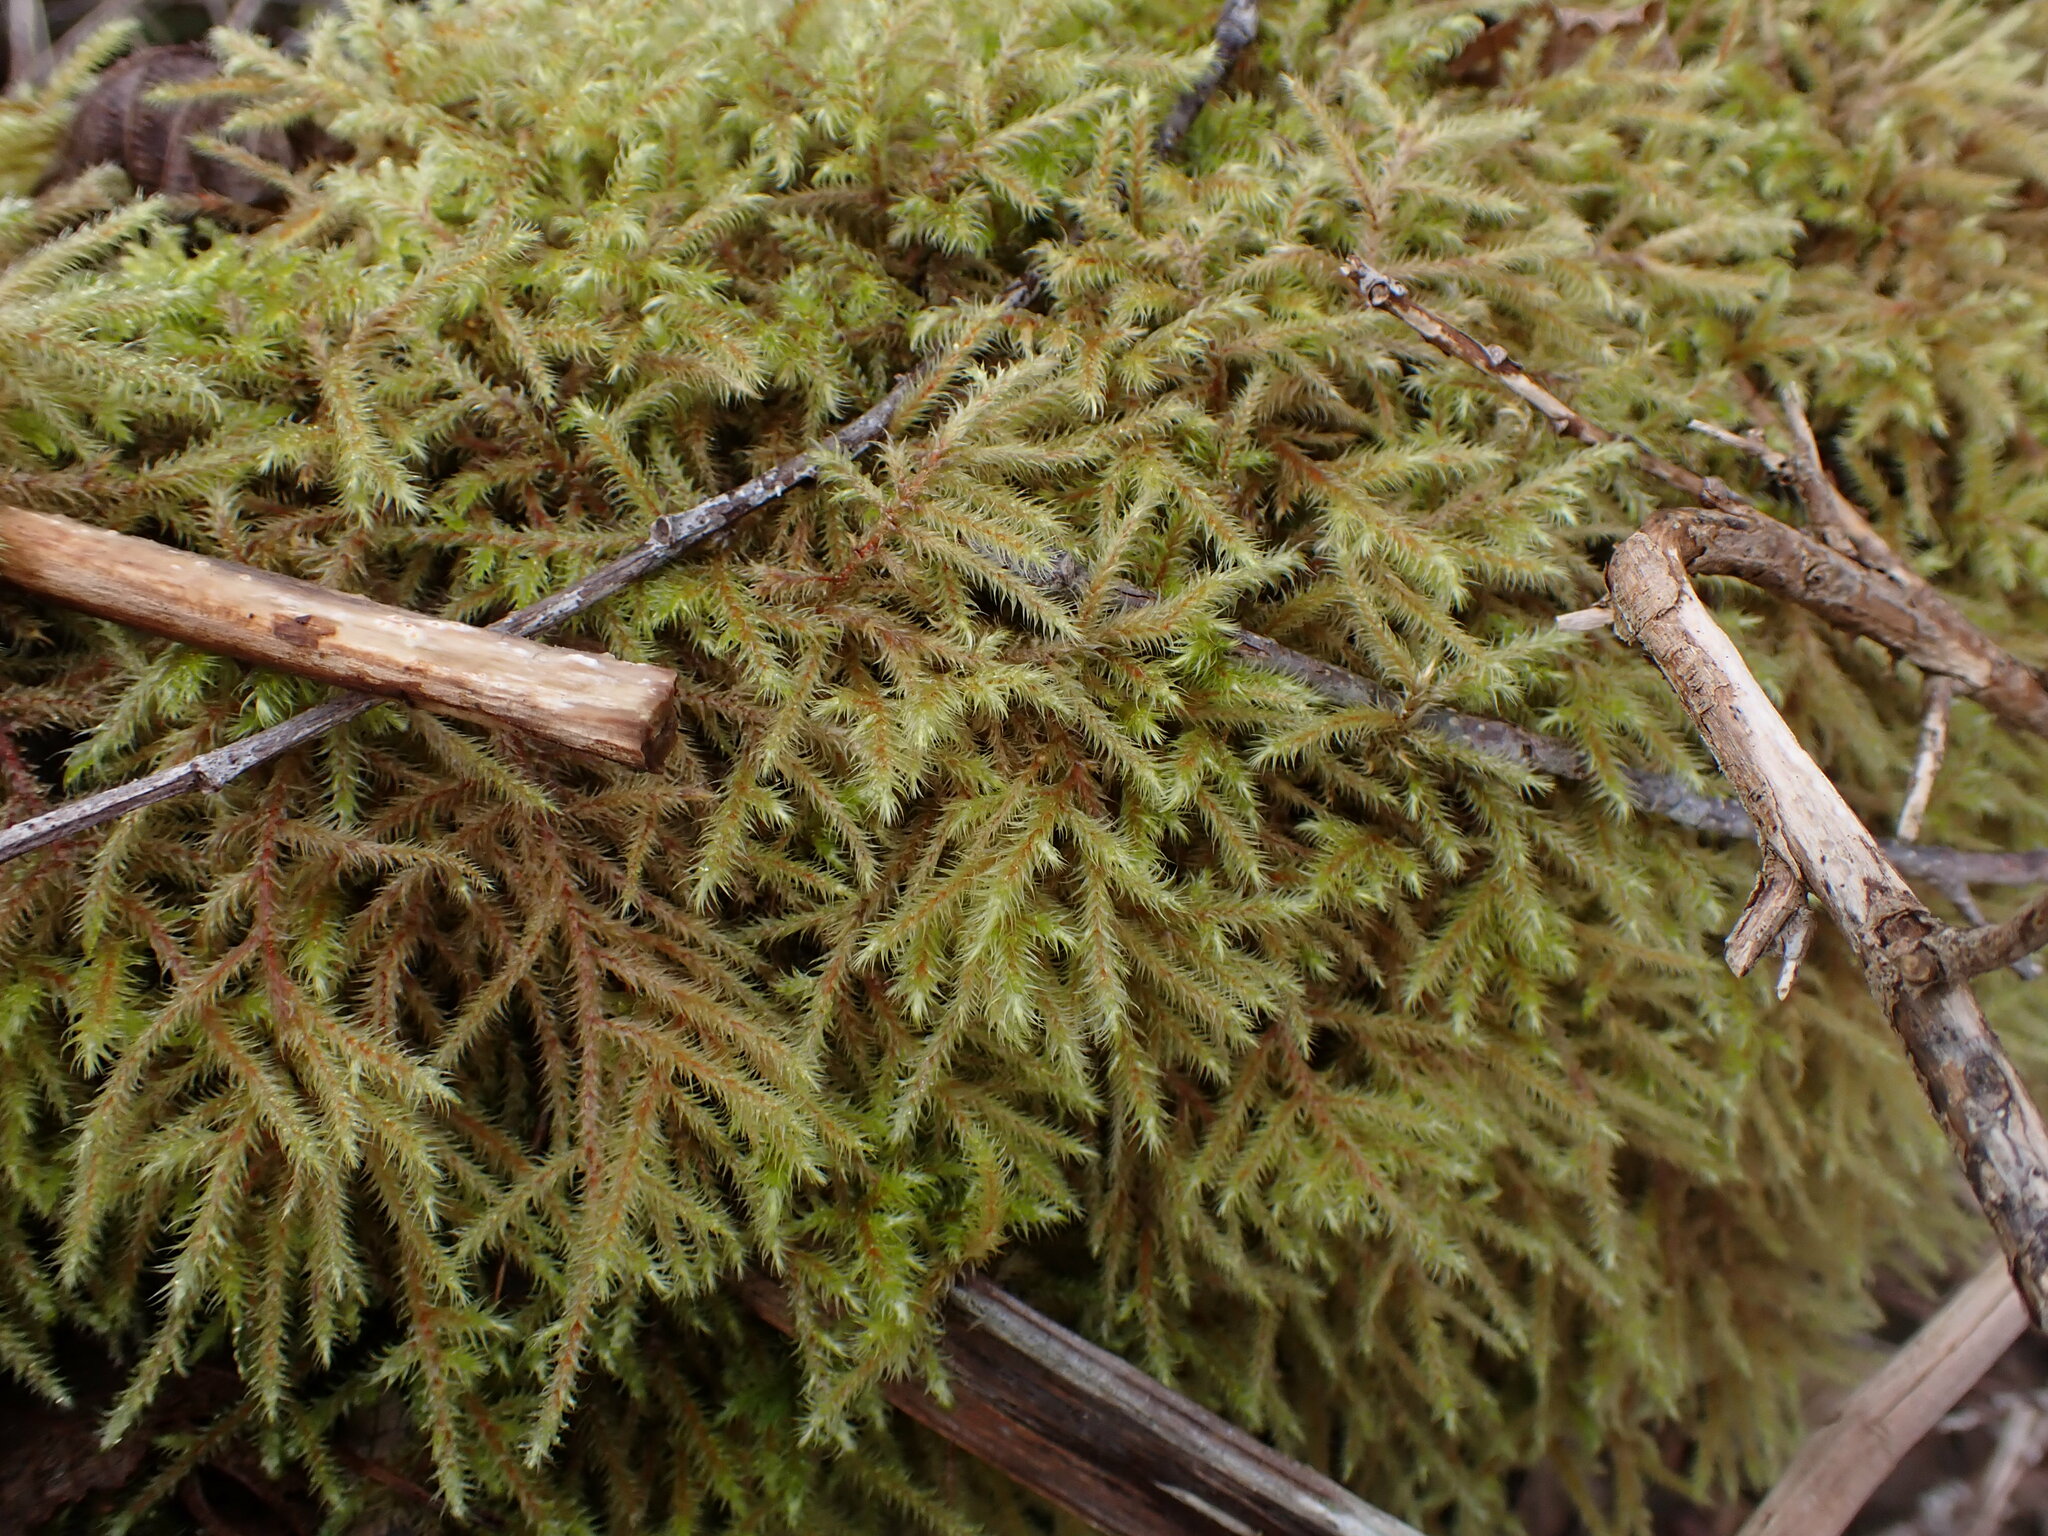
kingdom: Plantae
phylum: Bryophyta
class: Bryopsida
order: Hypnales
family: Hylocomiaceae
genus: Rhytidiadelphus
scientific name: Rhytidiadelphus loreus
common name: Lanky moss
